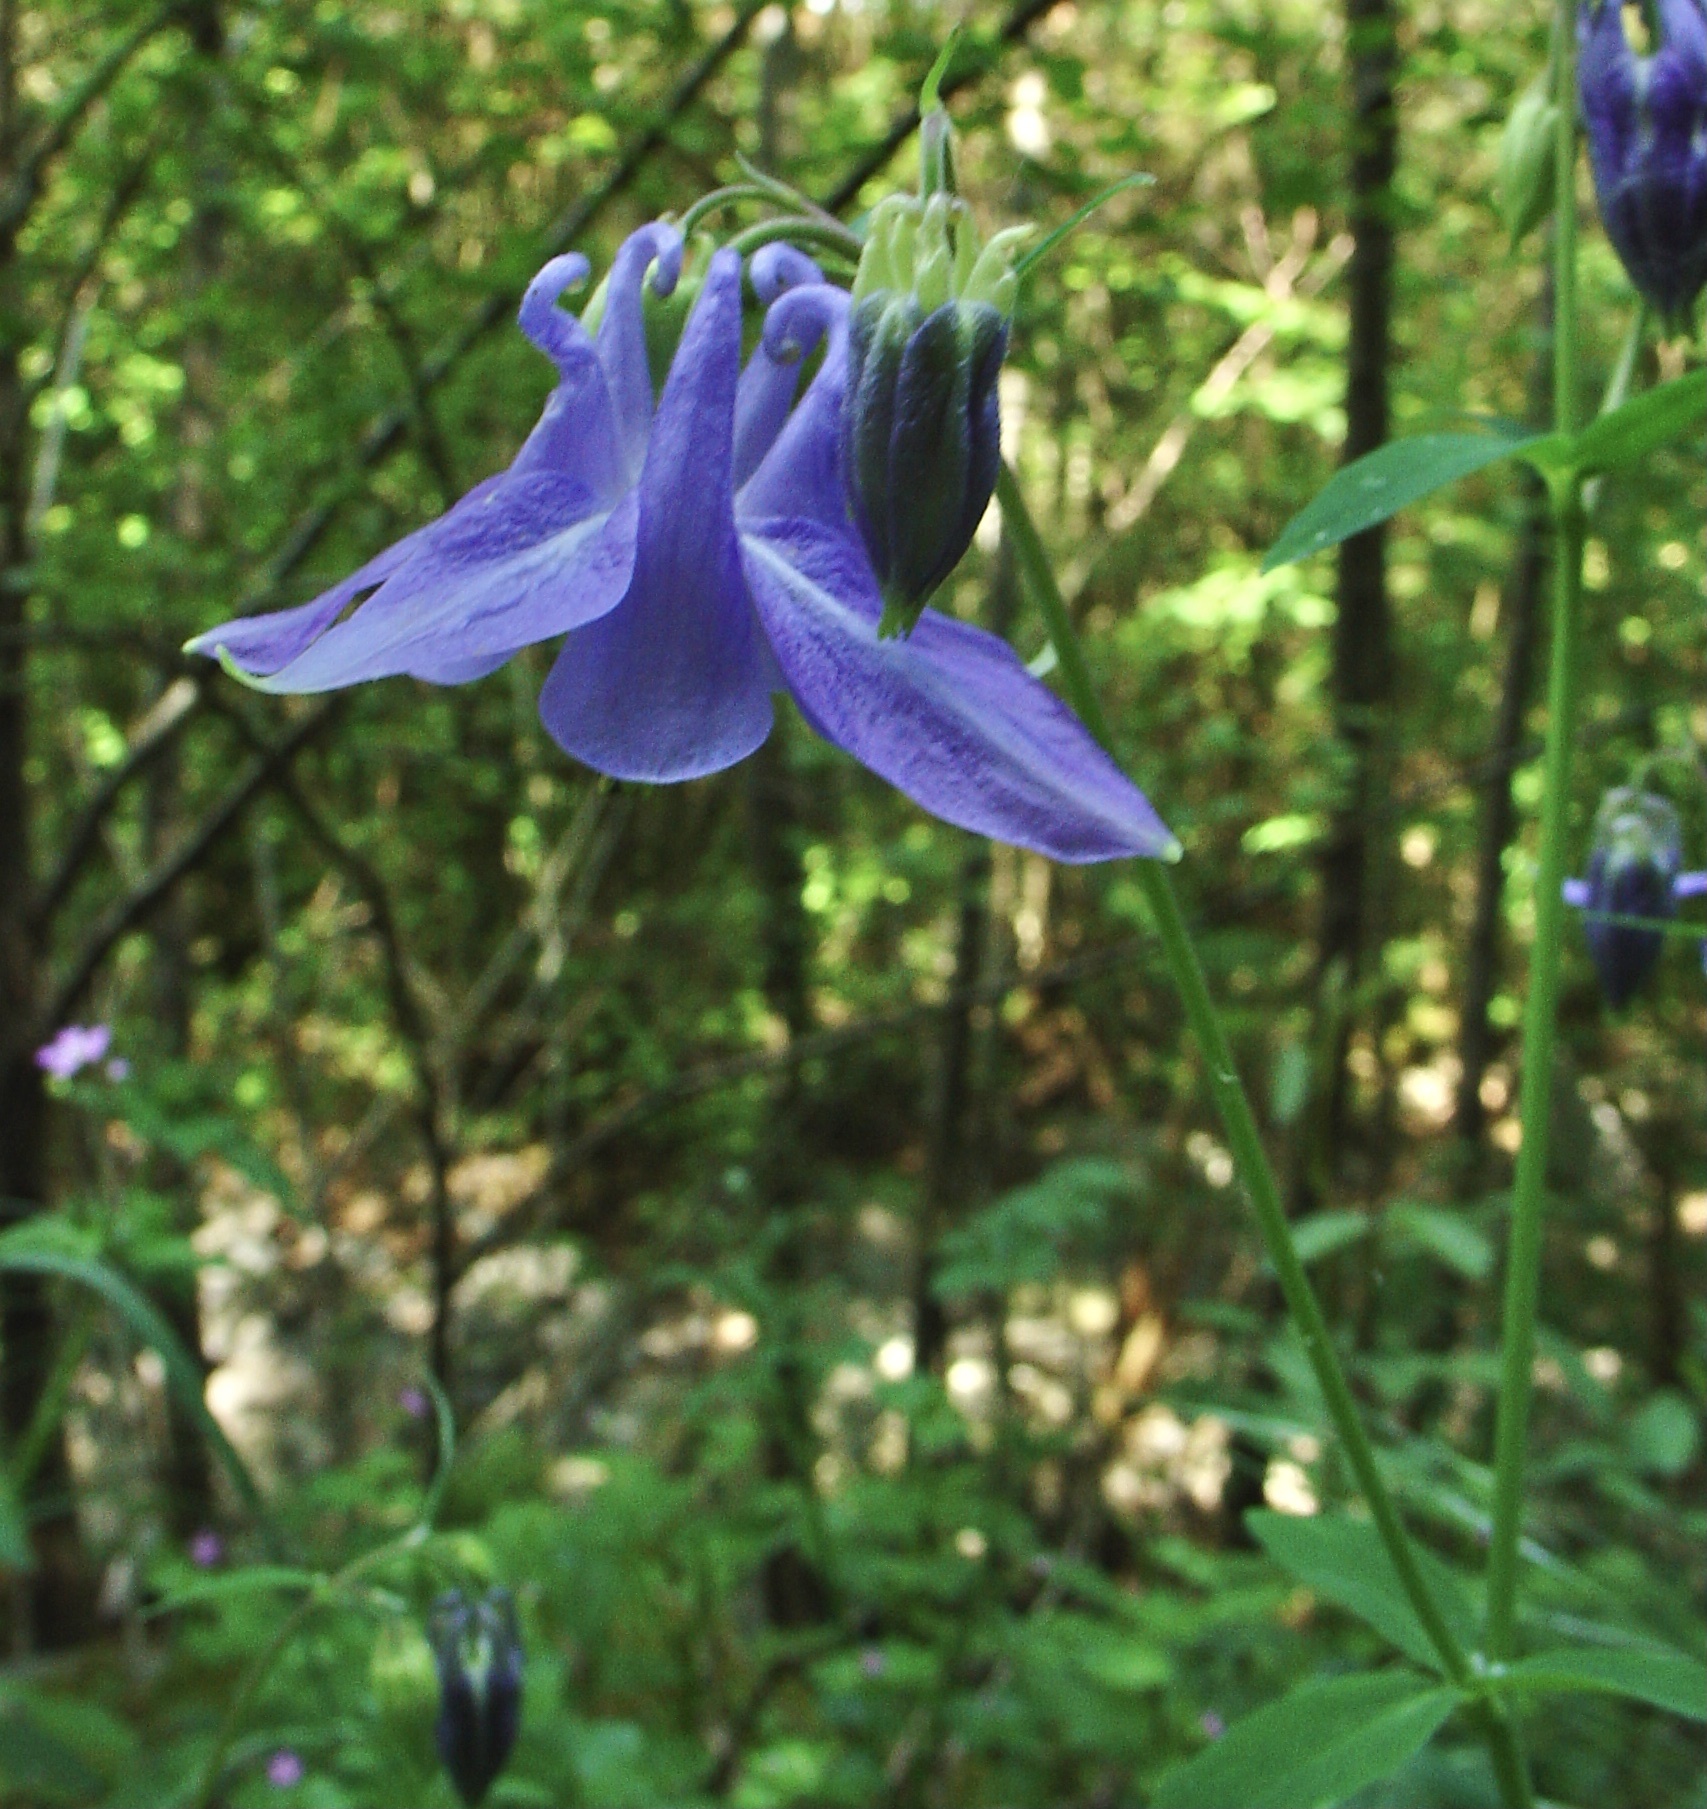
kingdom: Plantae
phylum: Tracheophyta
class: Magnoliopsida
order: Ranunculales
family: Ranunculaceae
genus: Aquilegia
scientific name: Aquilegia vulgaris
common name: Columbine
